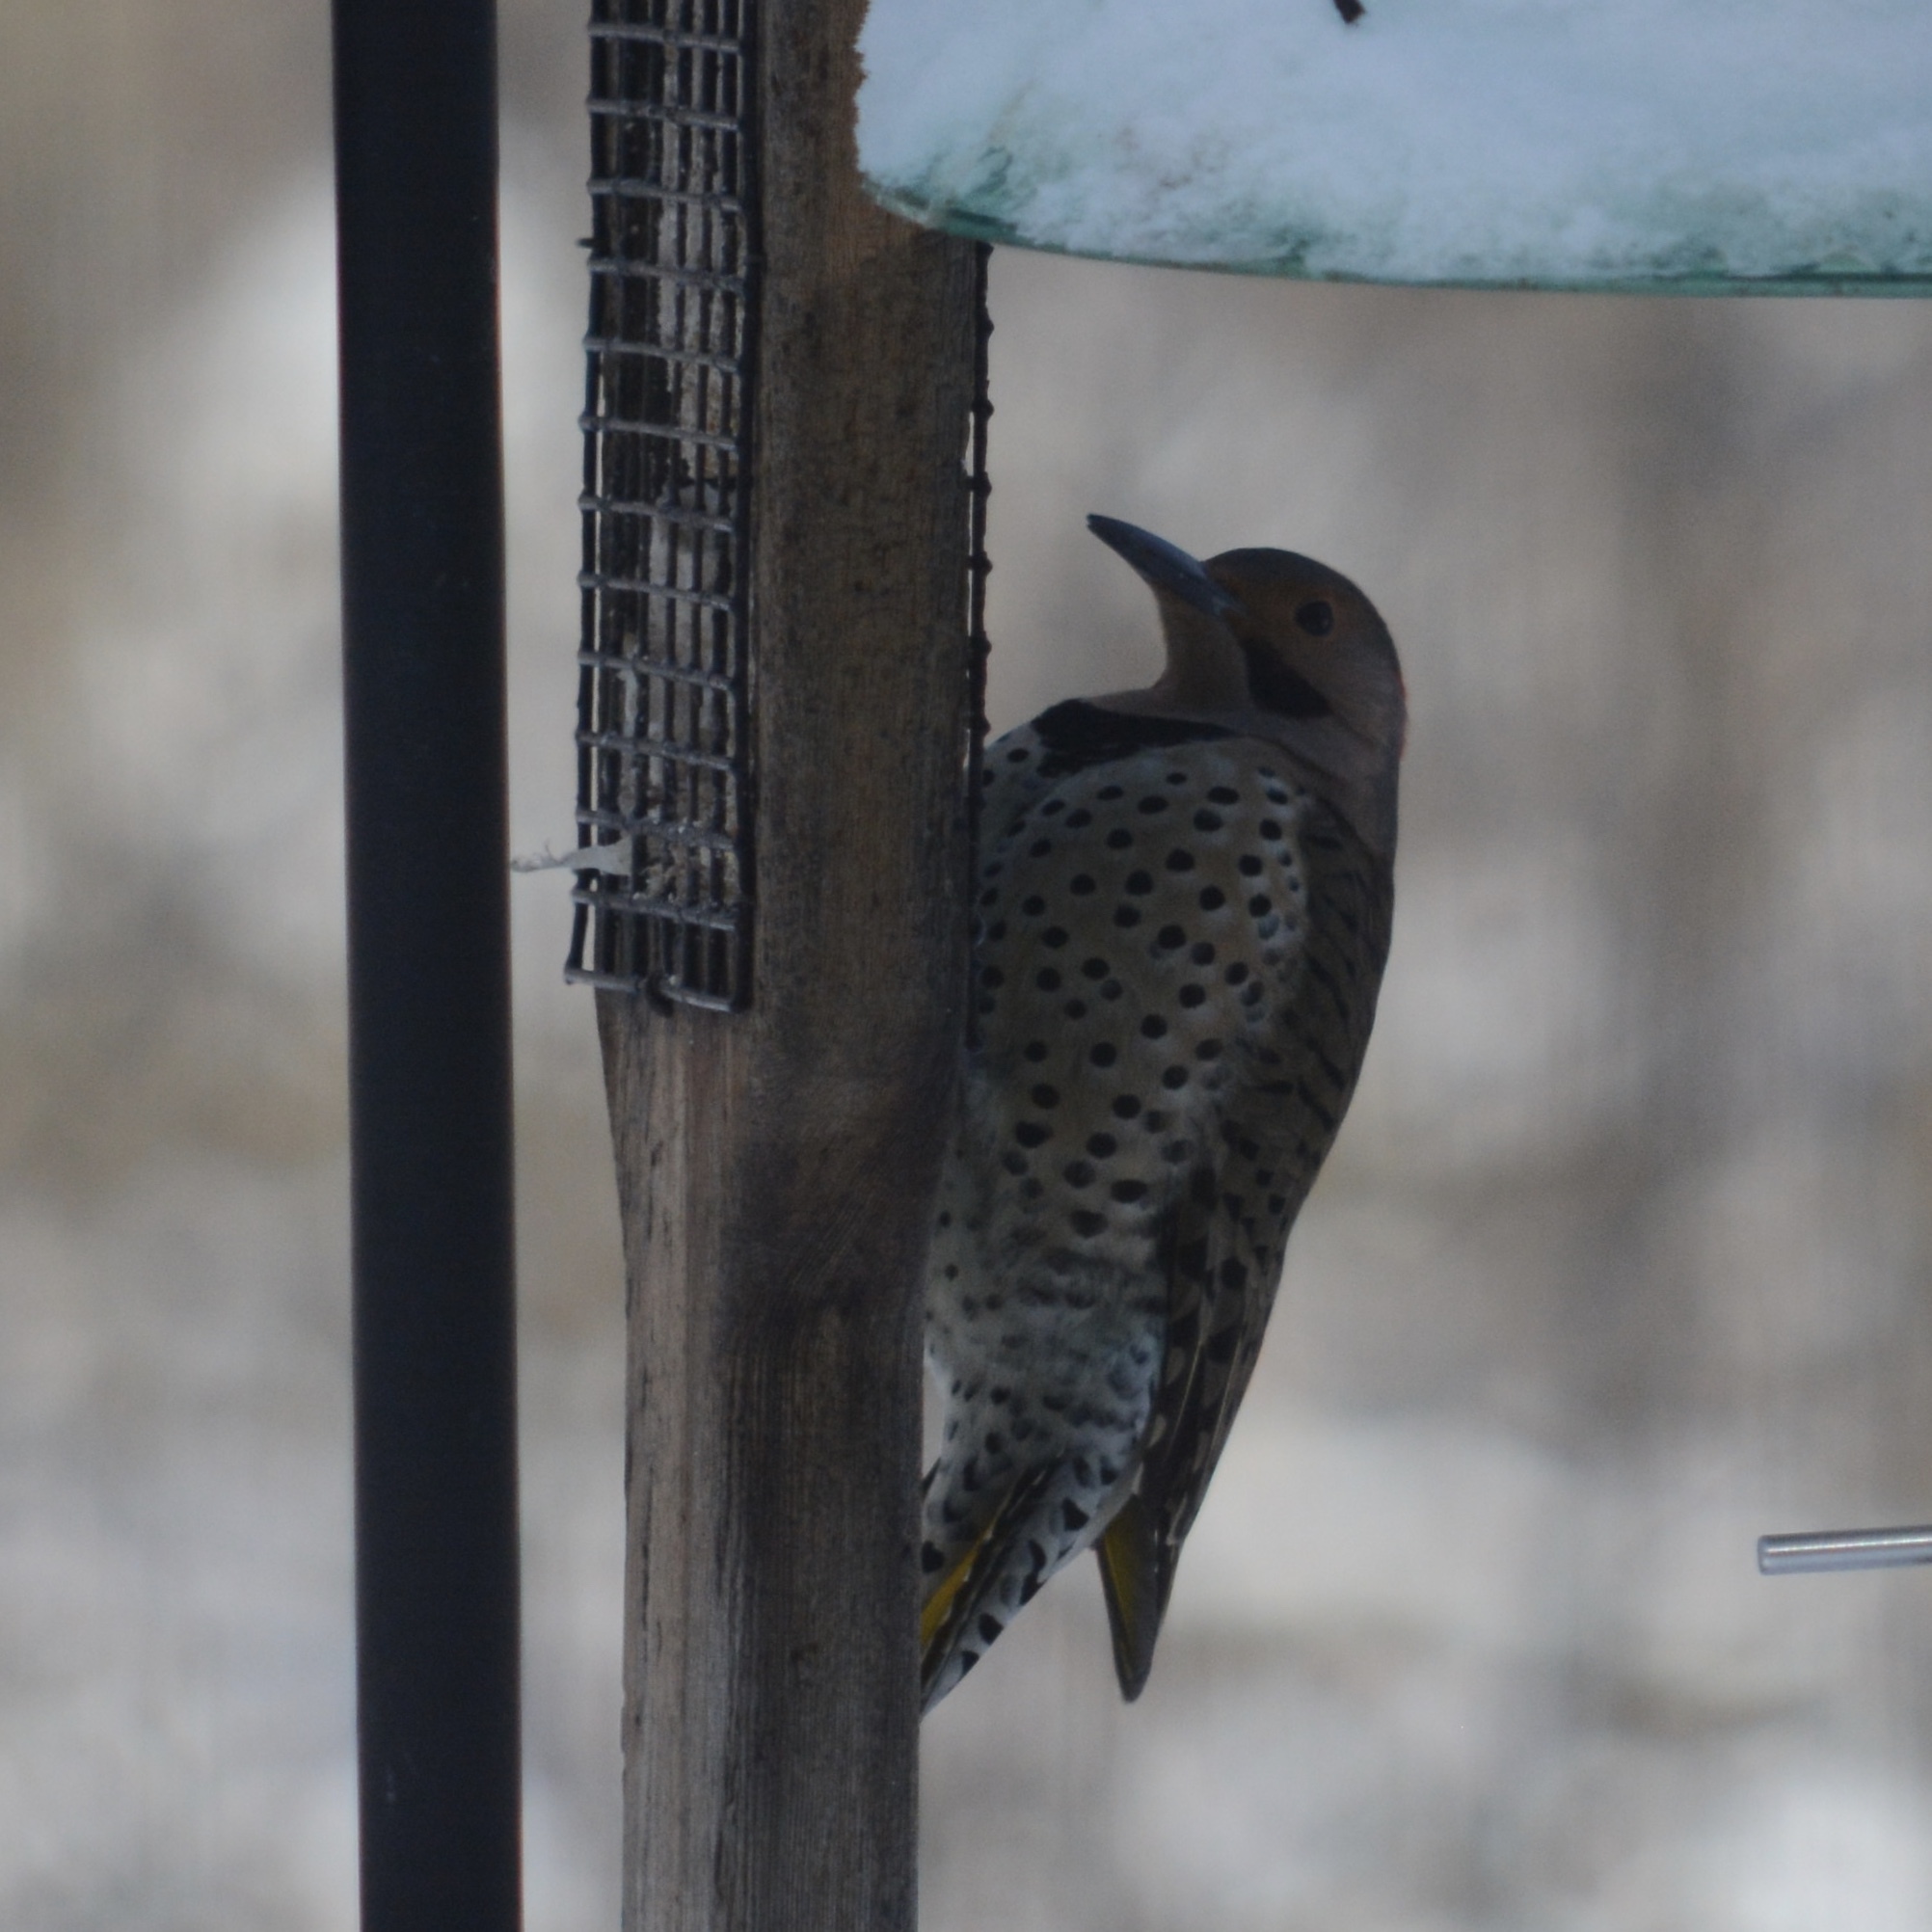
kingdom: Animalia
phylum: Chordata
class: Aves
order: Piciformes
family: Picidae
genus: Colaptes
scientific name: Colaptes auratus
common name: Northern flicker
